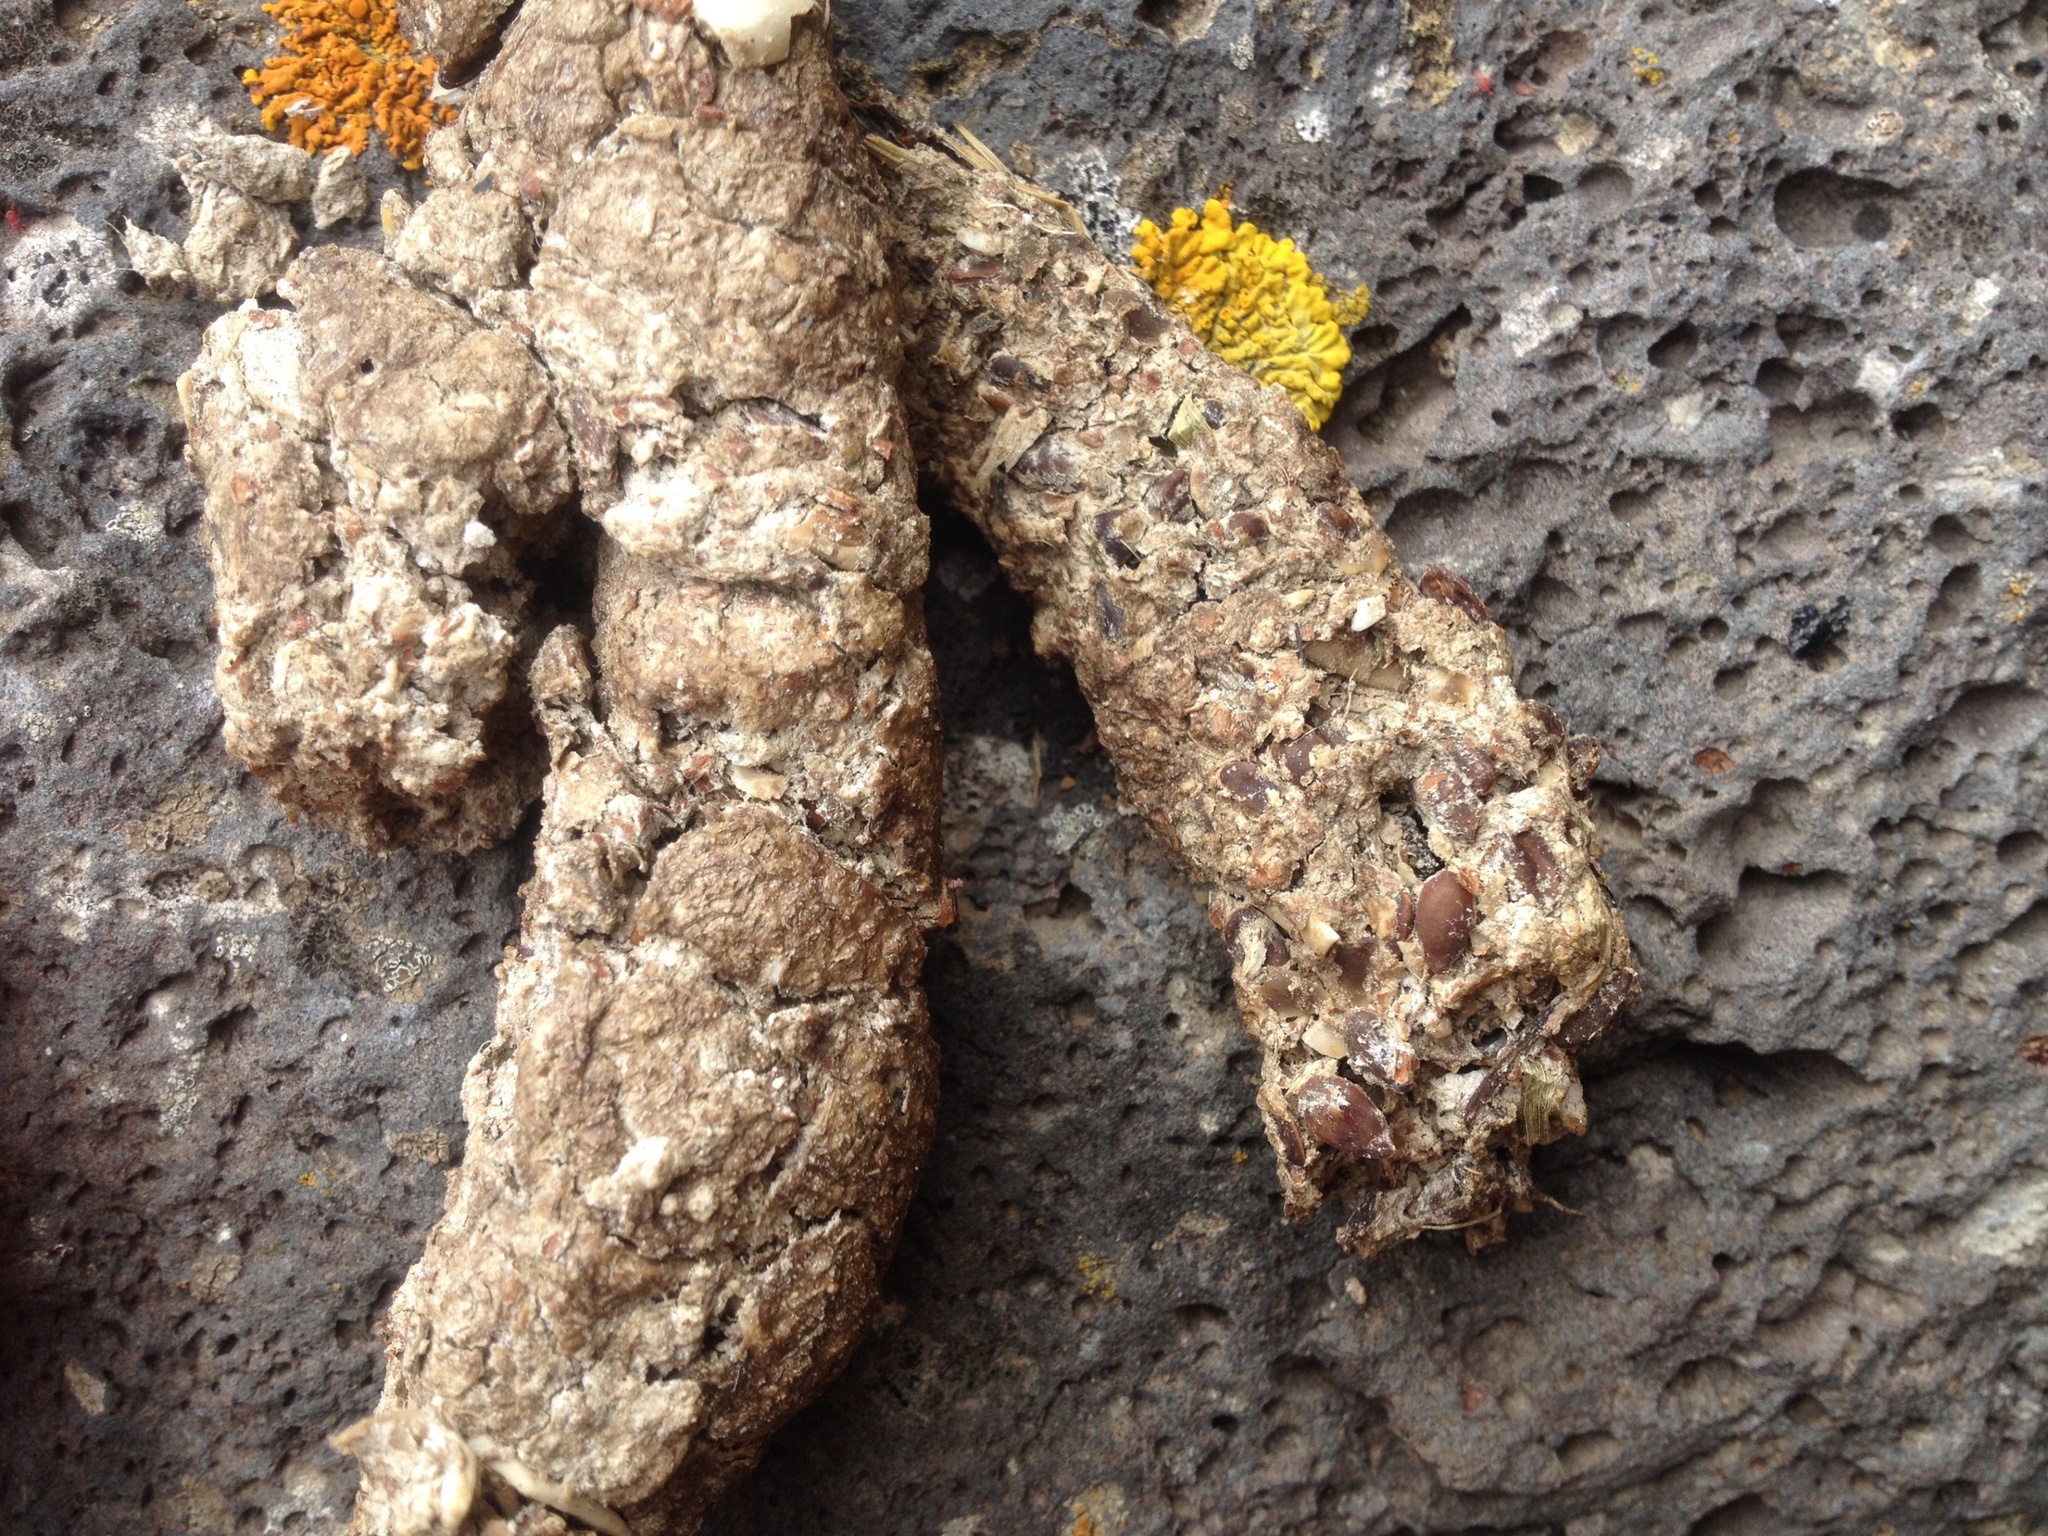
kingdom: Animalia
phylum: Chordata
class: Mammalia
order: Diprotodontia
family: Phalangeridae
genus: Trichosurus
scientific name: Trichosurus vulpecula
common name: Common brushtail
